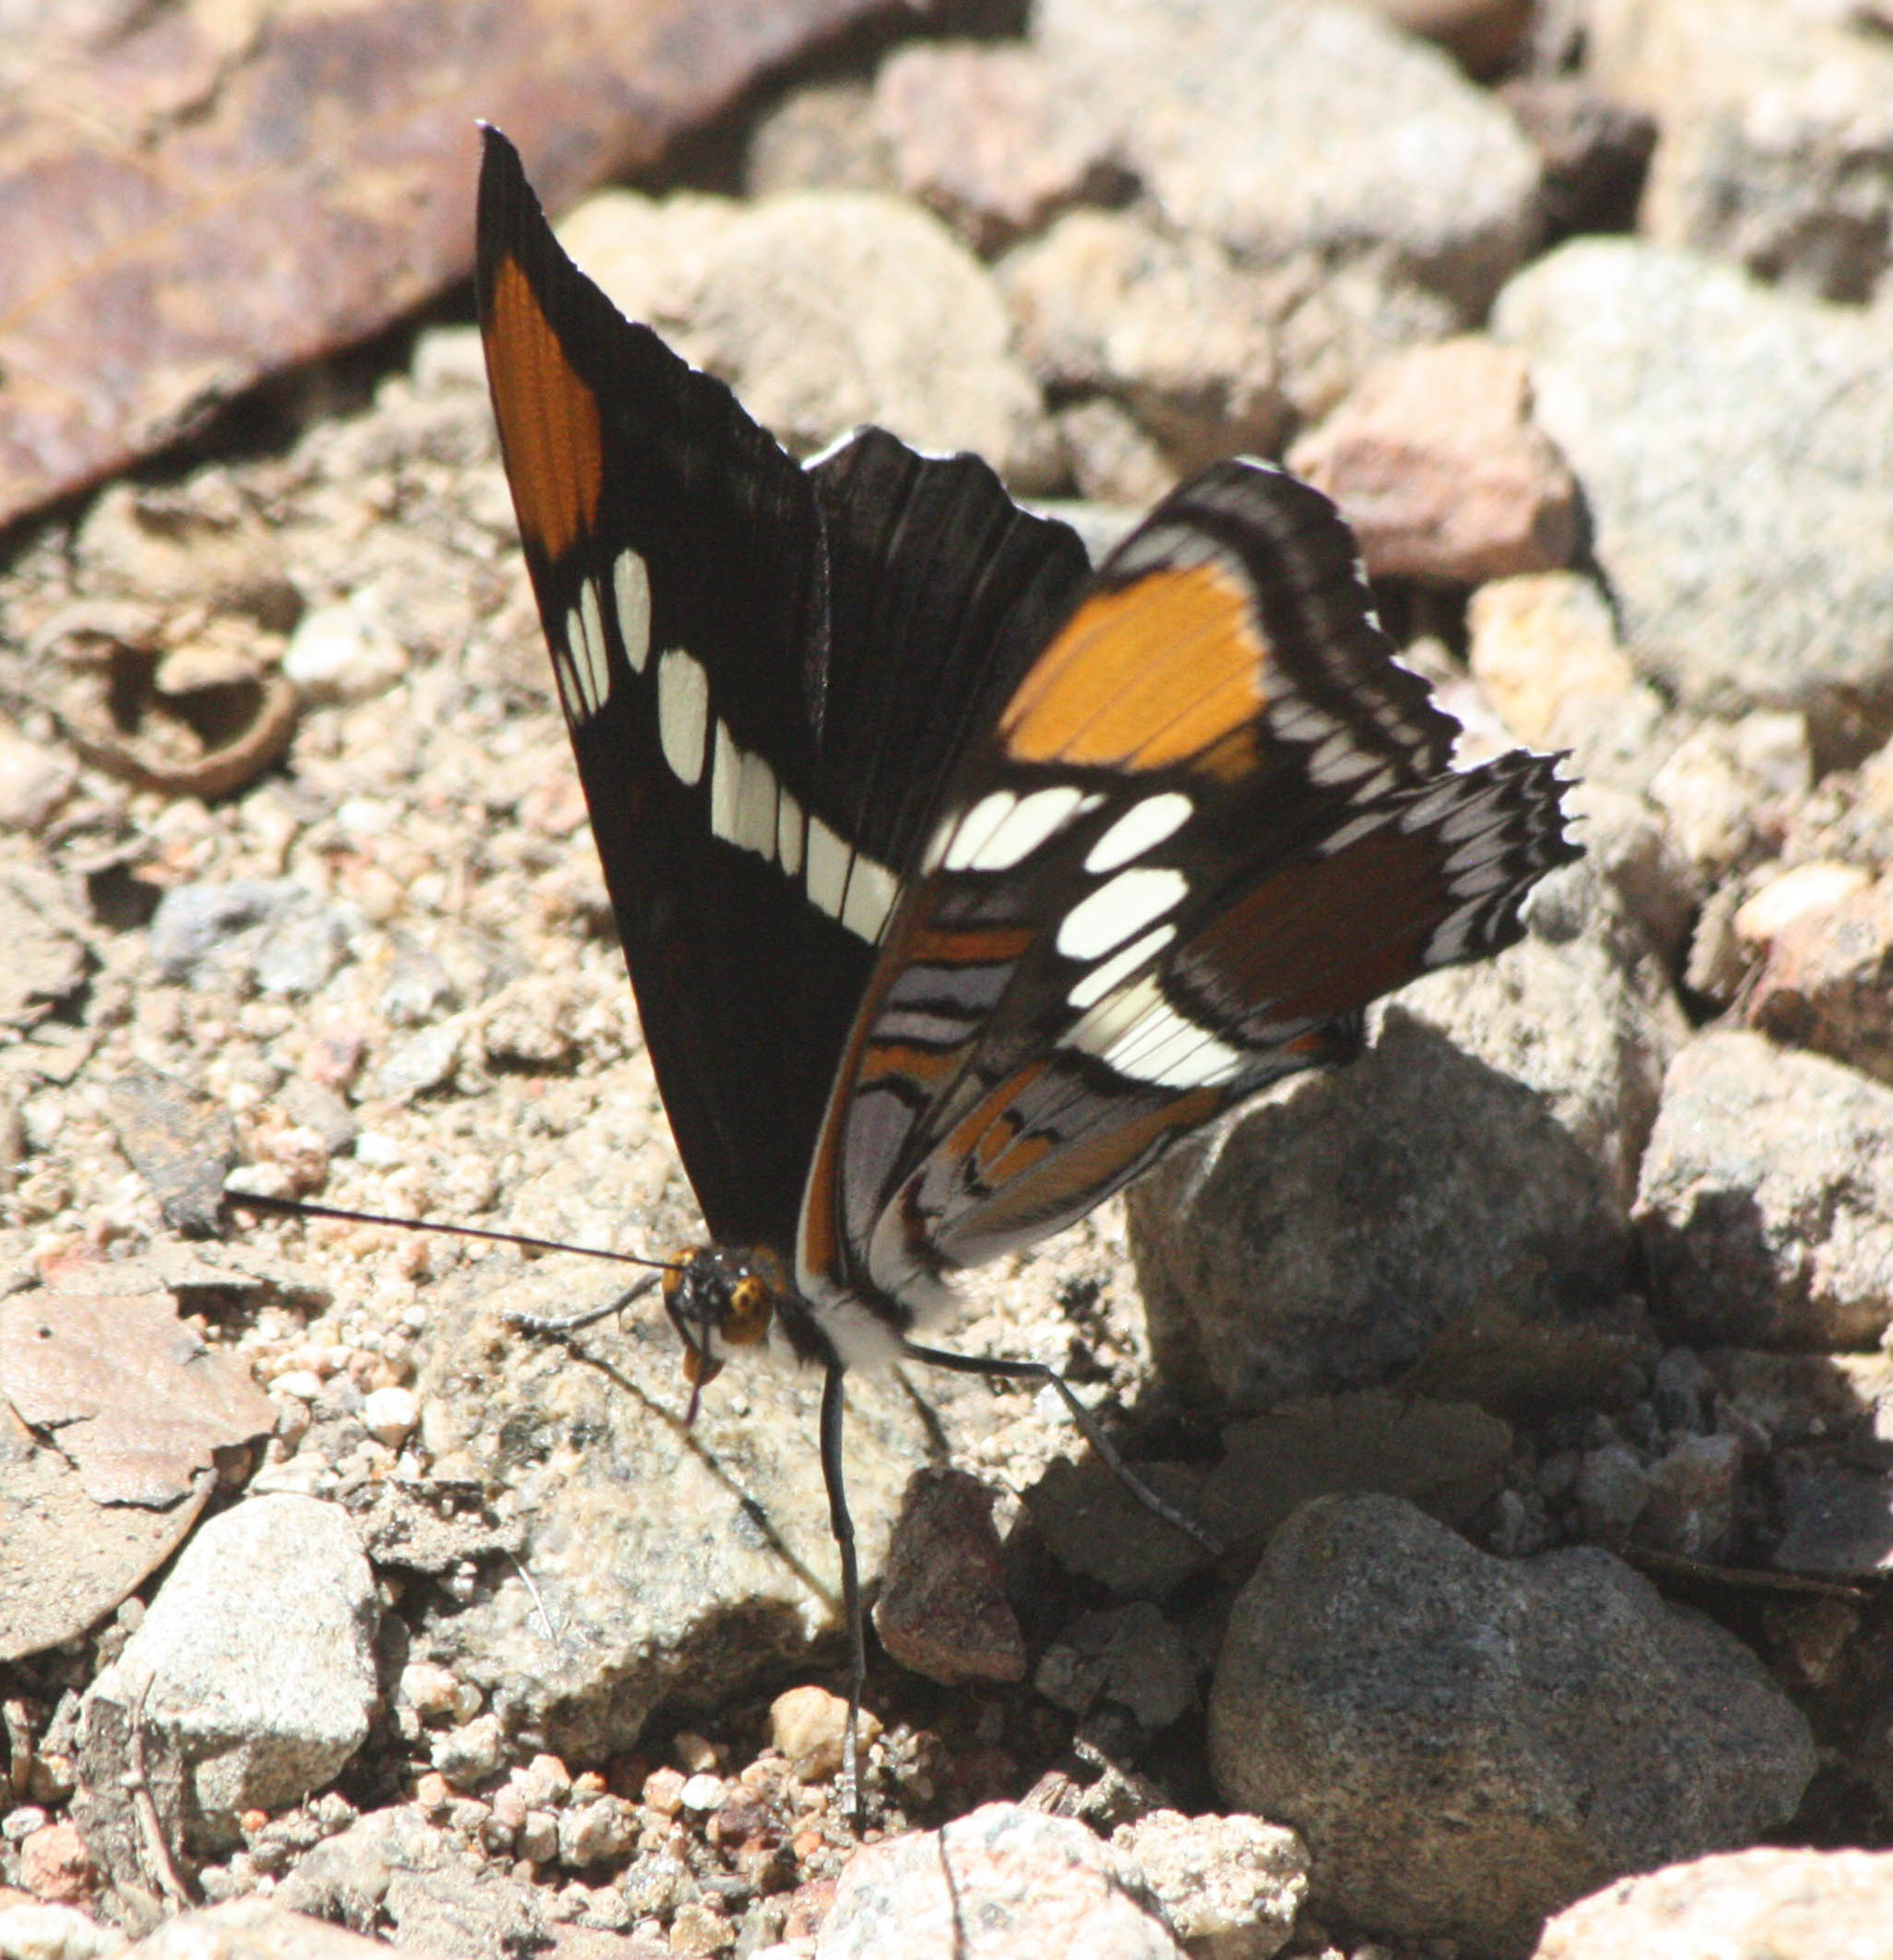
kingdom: Animalia
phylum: Arthropoda
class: Insecta
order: Lepidoptera
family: Nymphalidae
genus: Limenitis
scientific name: Limenitis bredowii
